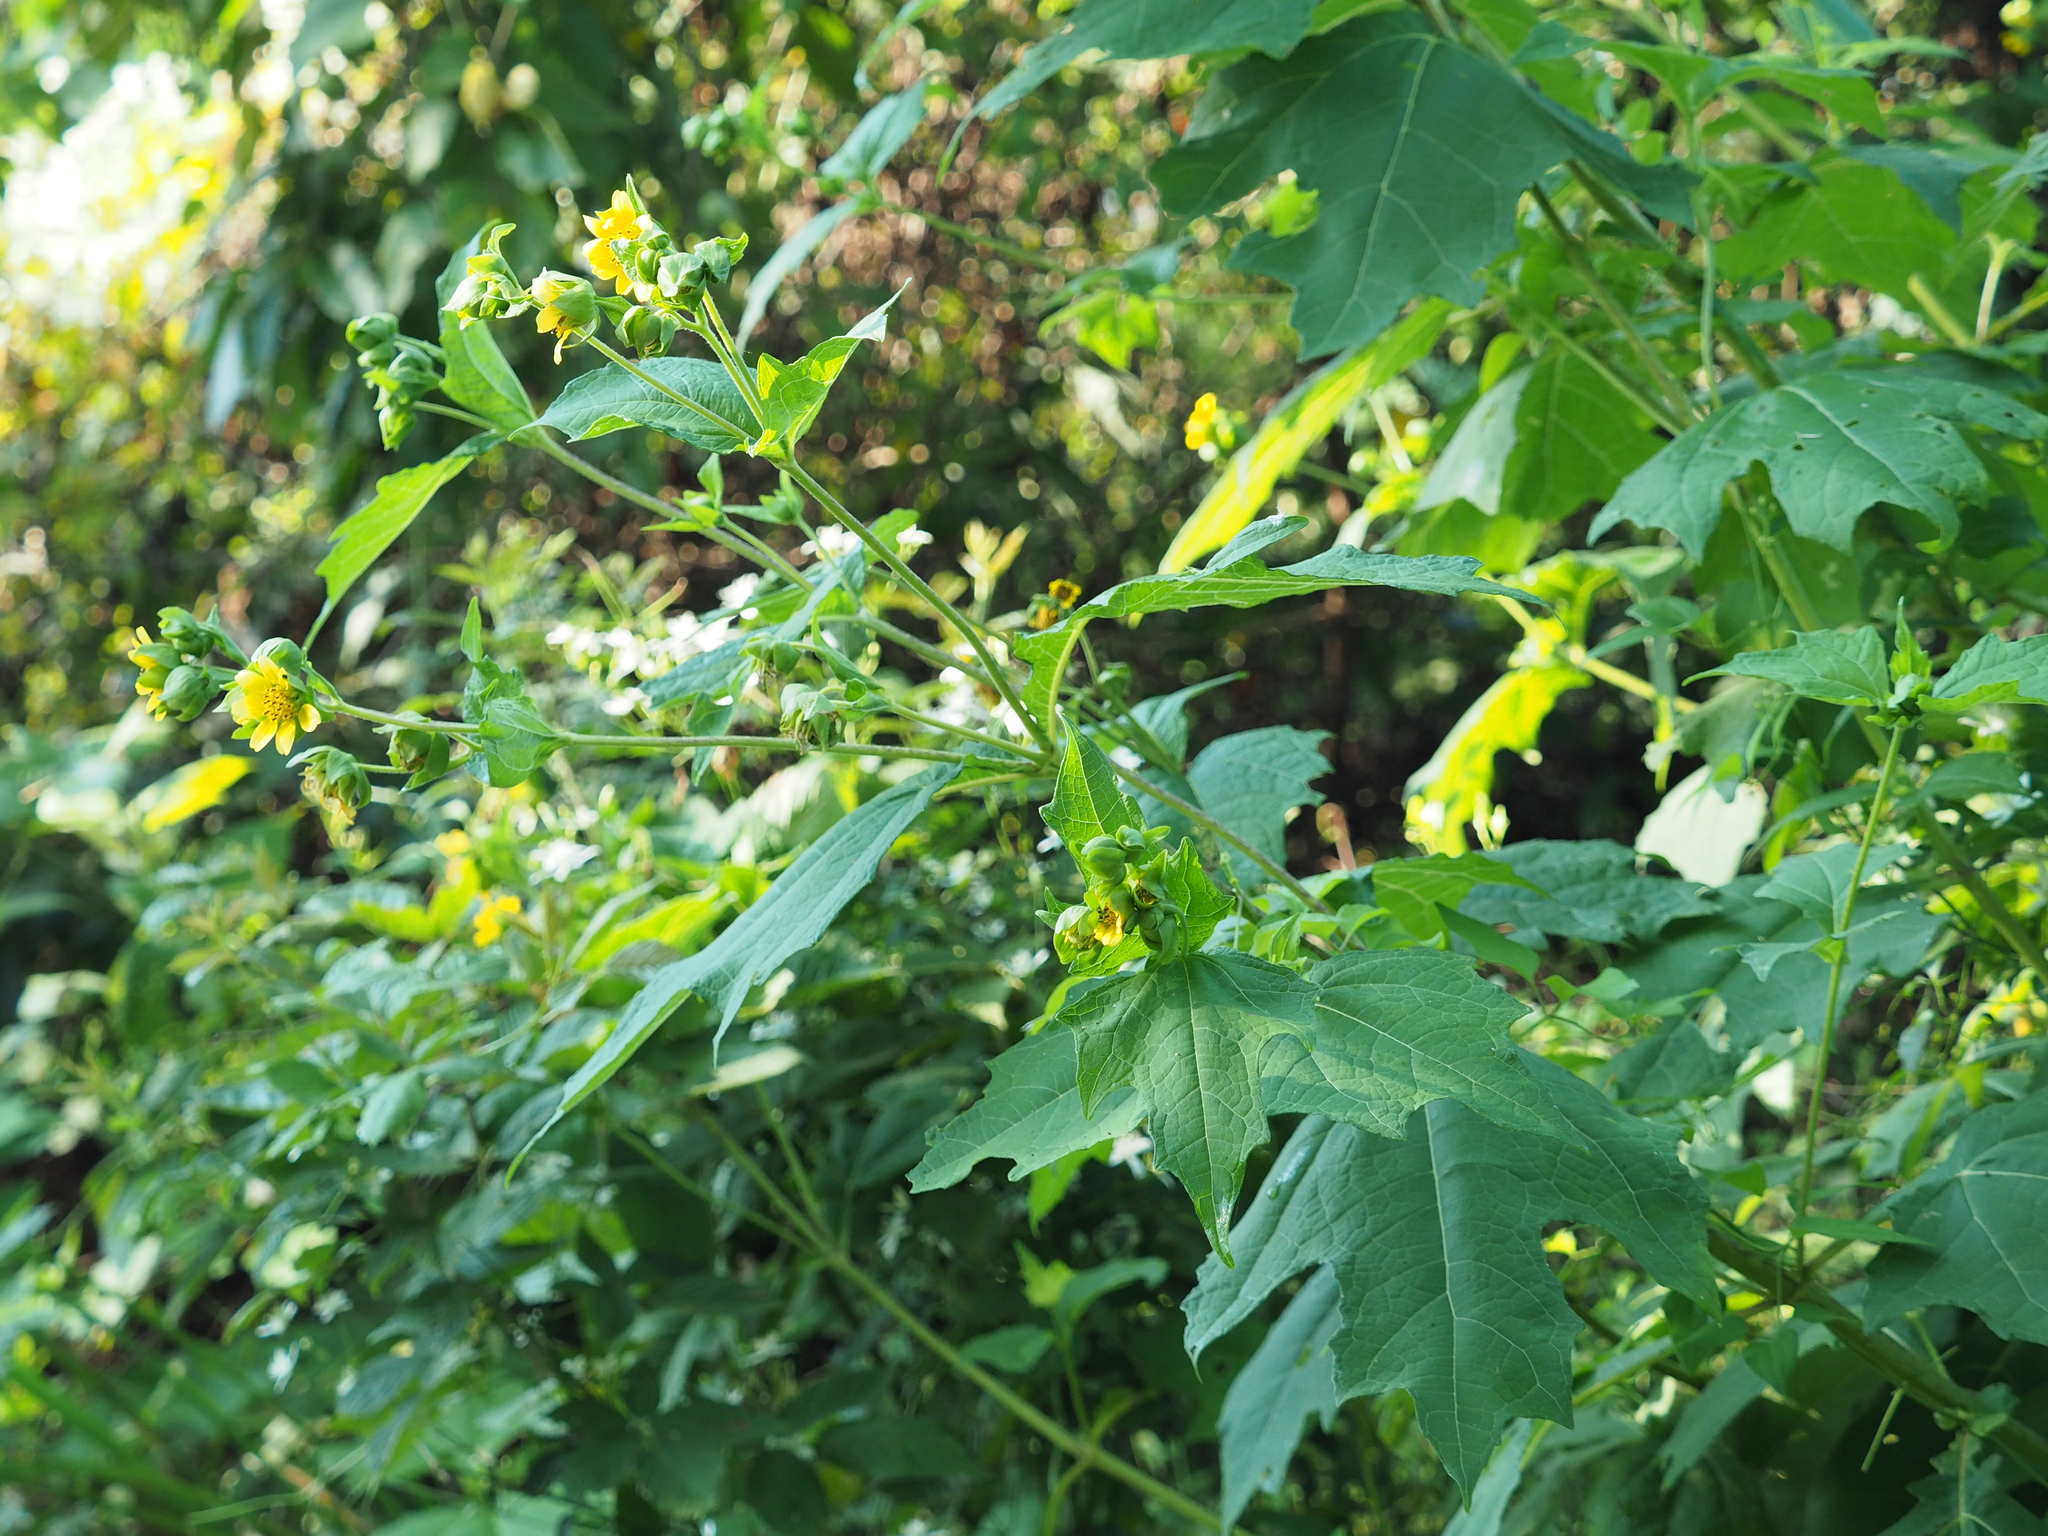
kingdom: Plantae
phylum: Tracheophyta
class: Magnoliopsida
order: Asterales
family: Asteraceae
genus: Smallanthus
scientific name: Smallanthus uvedalia
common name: Bear's-foot
